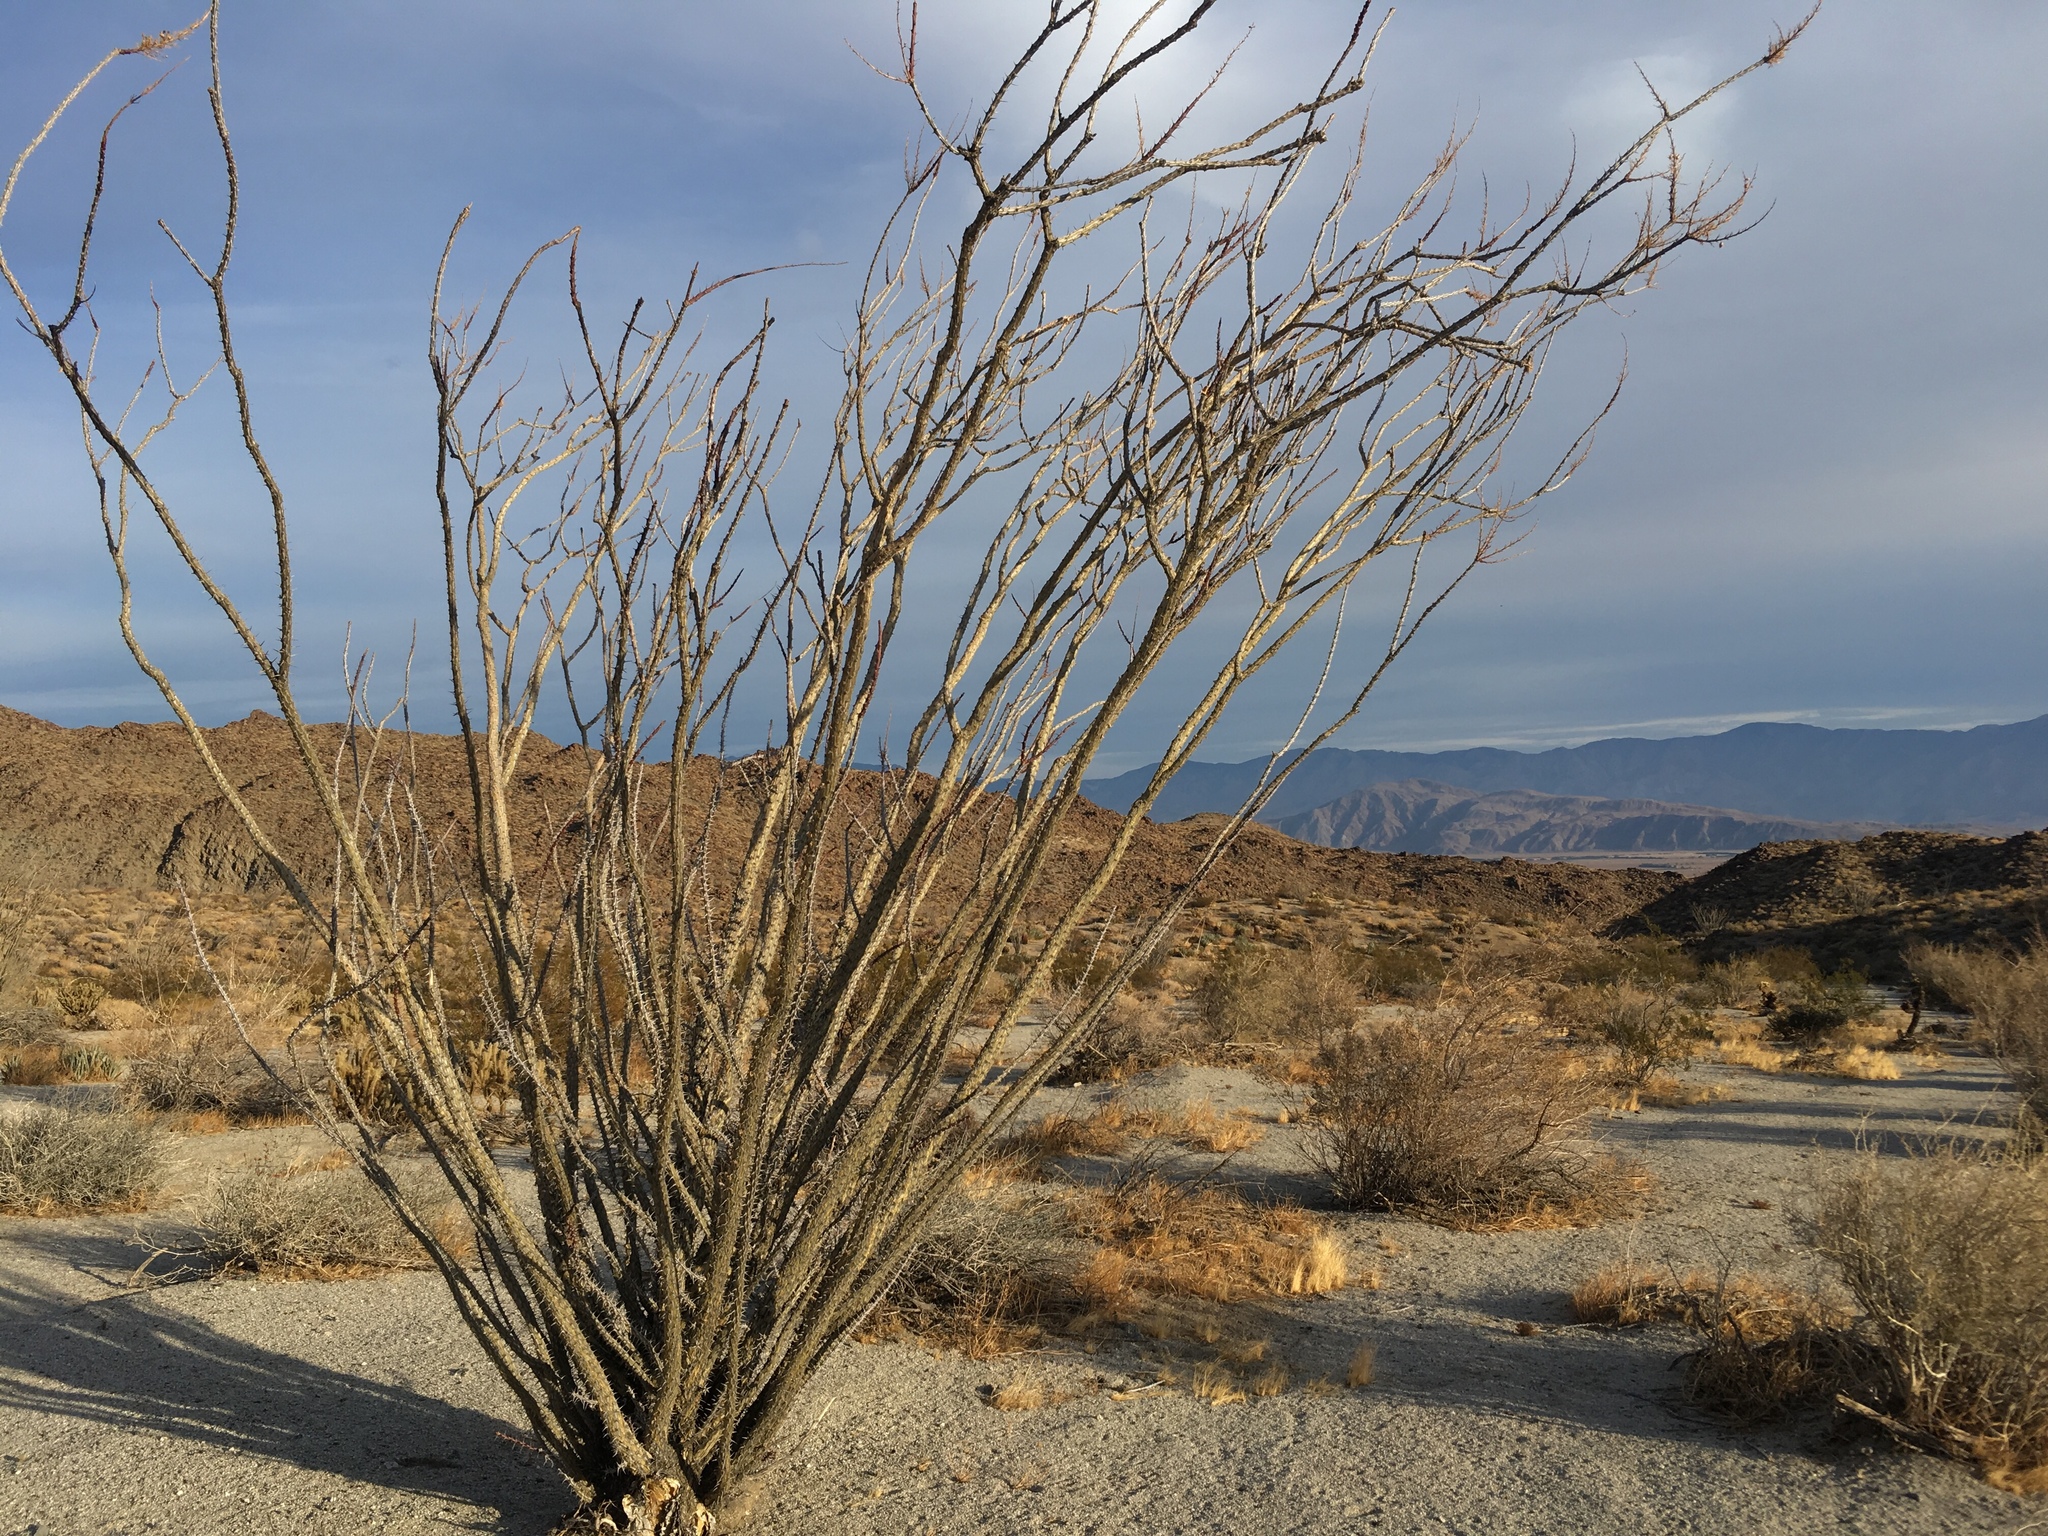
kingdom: Plantae
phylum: Tracheophyta
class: Magnoliopsida
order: Ericales
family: Fouquieriaceae
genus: Fouquieria
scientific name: Fouquieria splendens
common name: Vine-cactus
